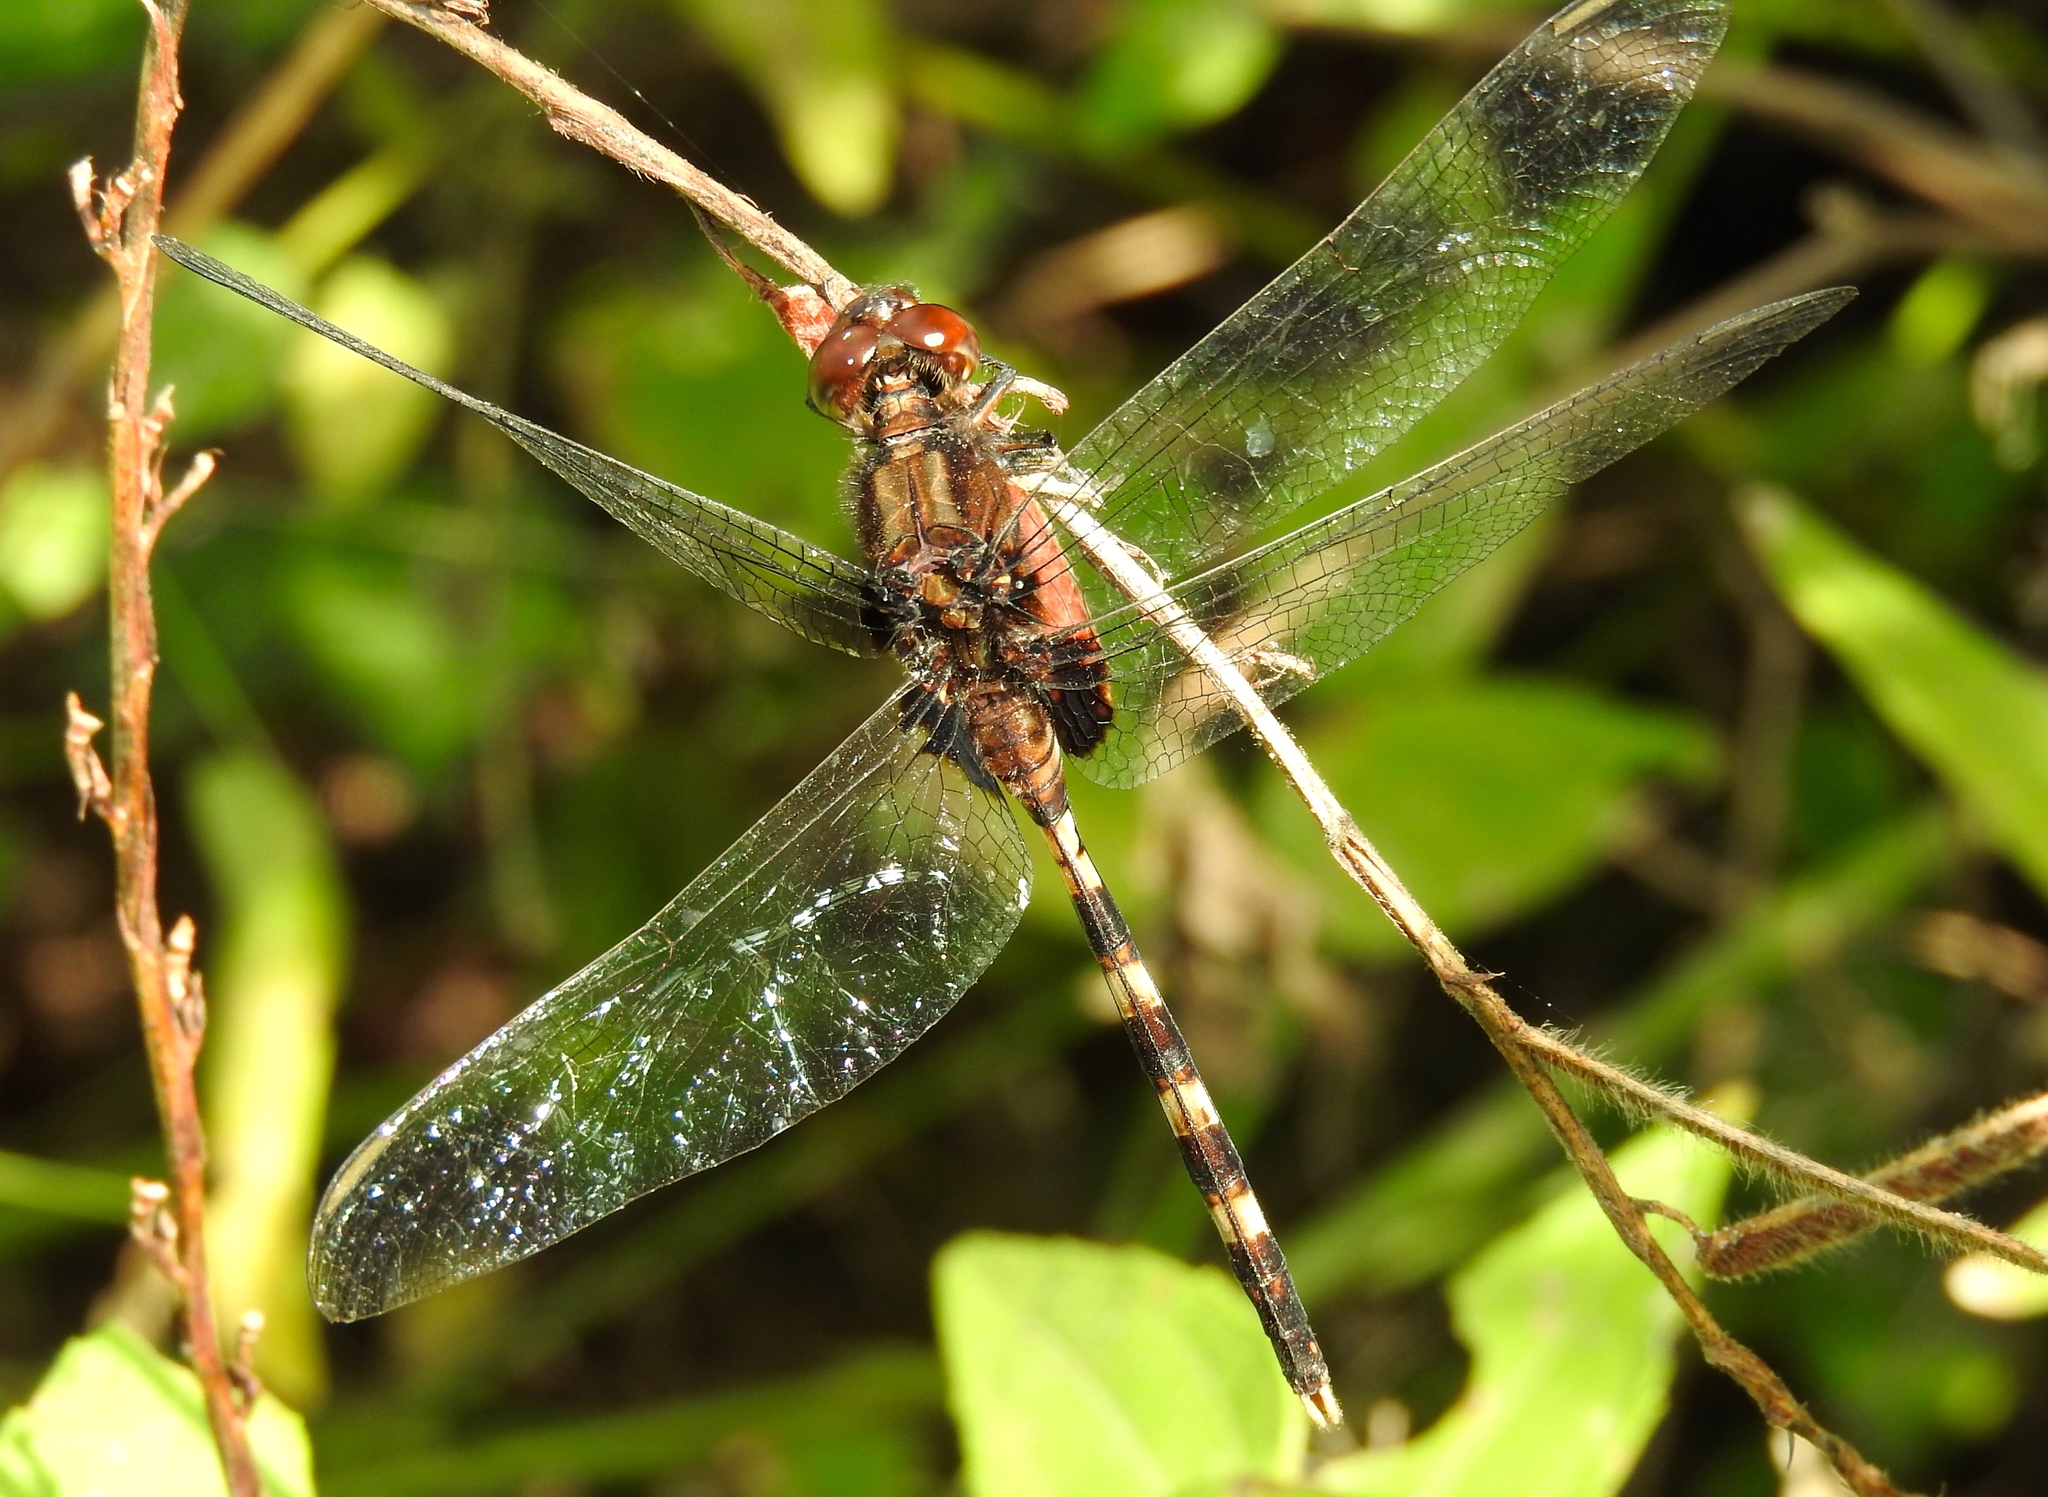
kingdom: Animalia
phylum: Arthropoda
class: Insecta
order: Odonata
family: Libellulidae
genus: Erythemis
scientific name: Erythemis plebeja
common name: Pin-tailed pondhawk
